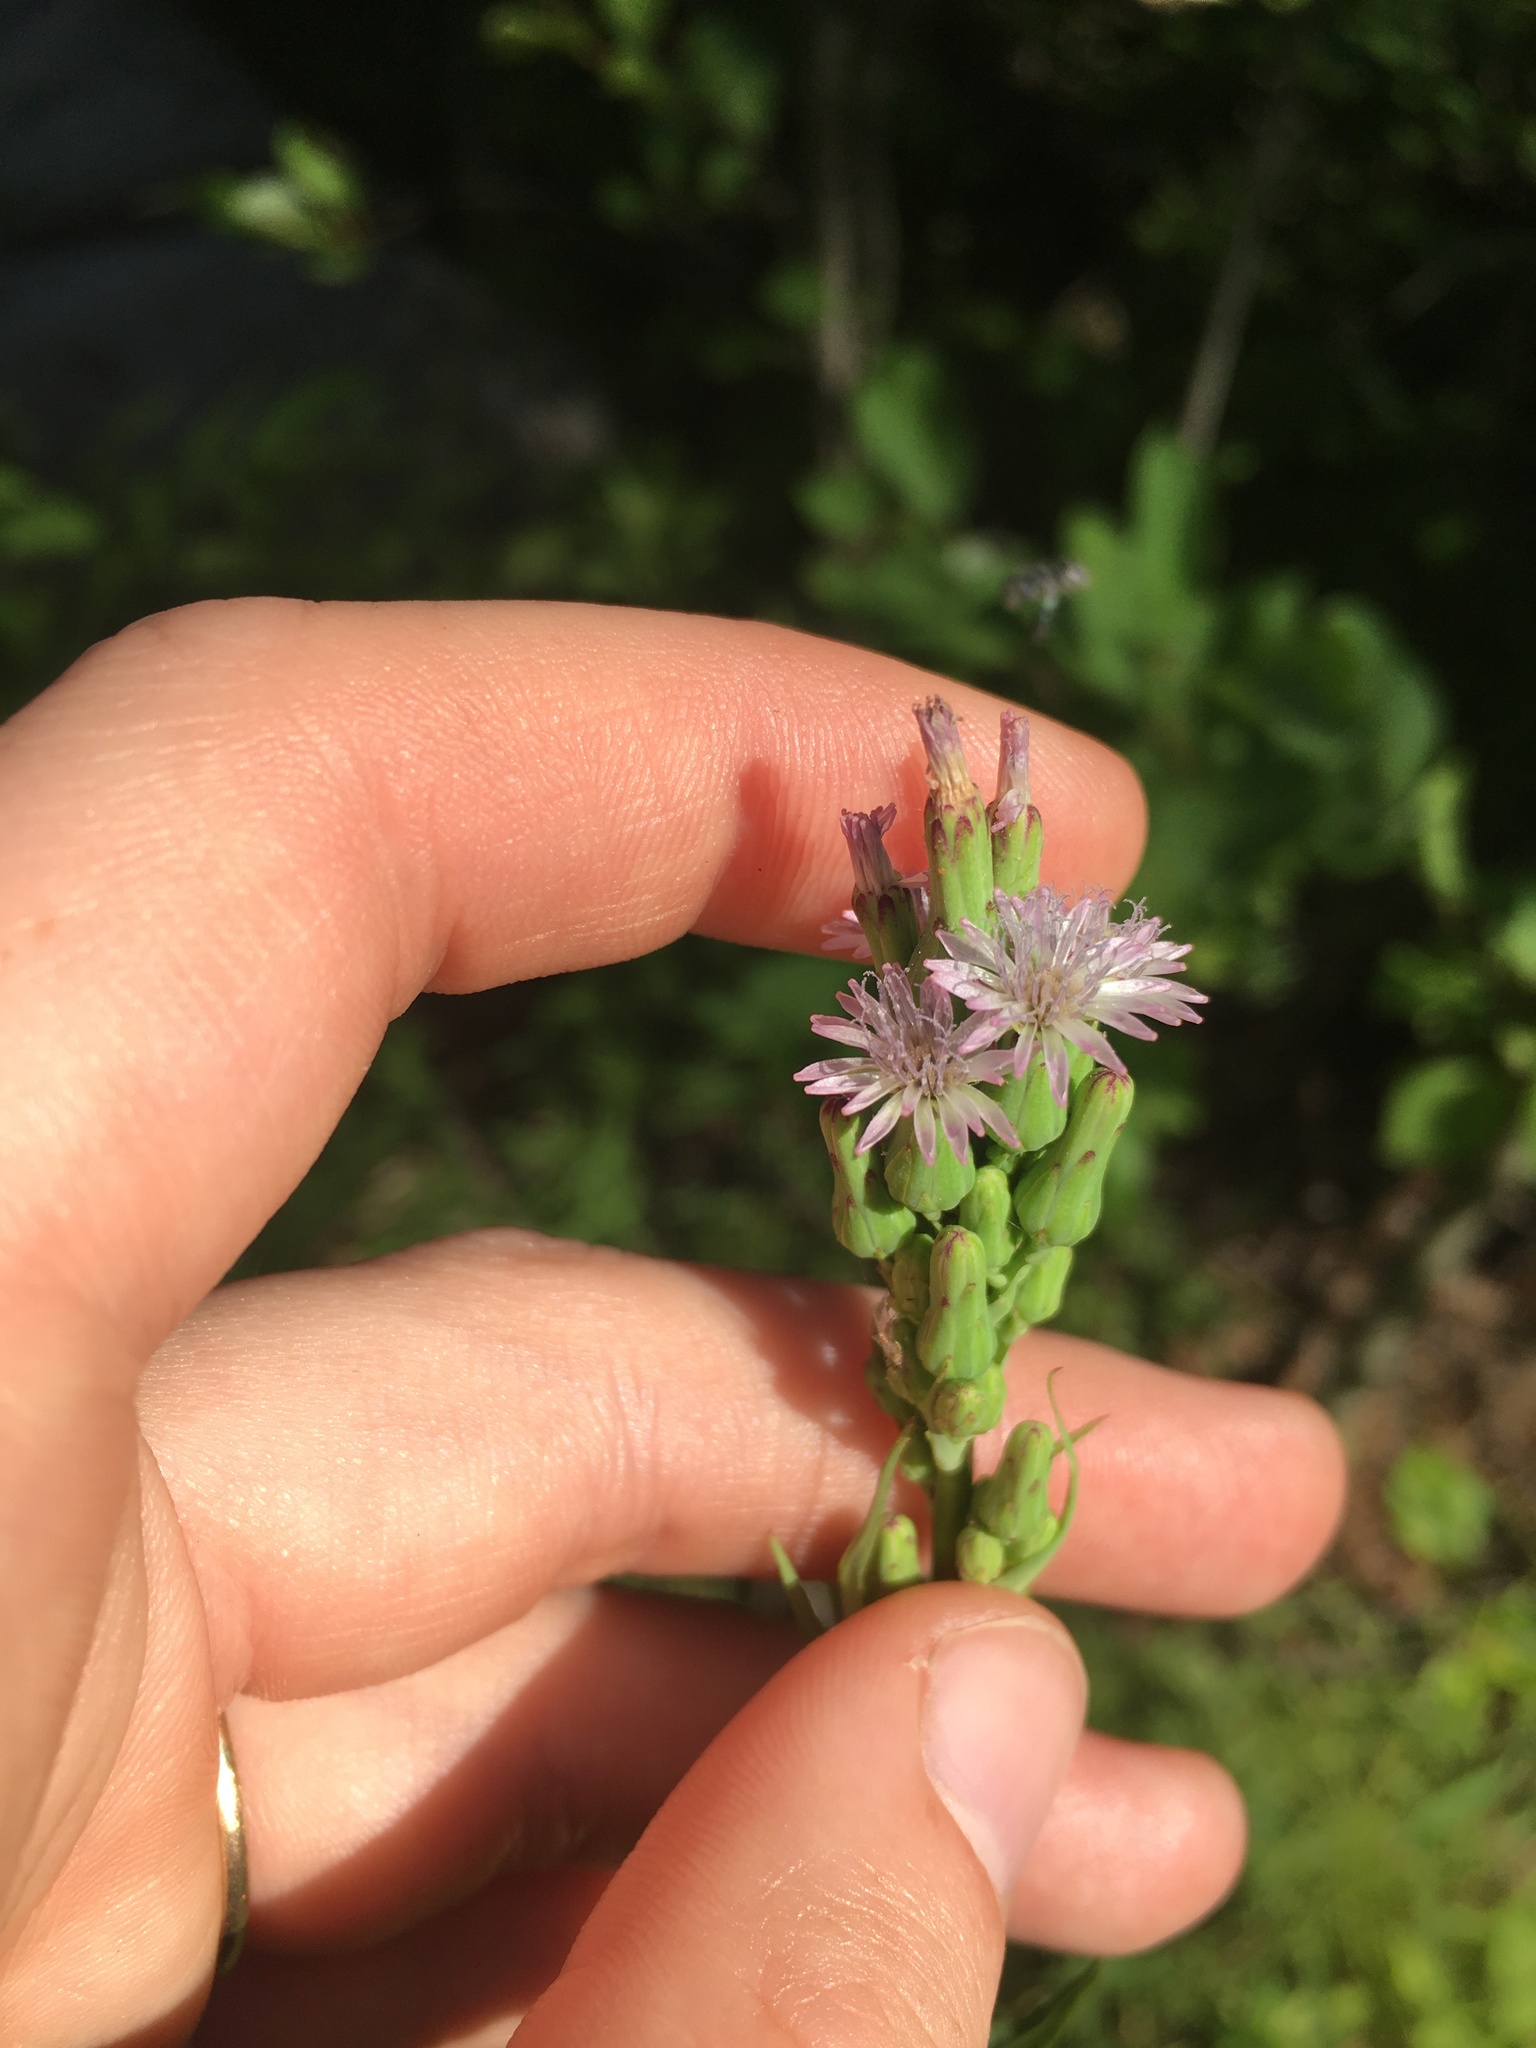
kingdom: Plantae
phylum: Tracheophyta
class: Magnoliopsida
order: Asterales
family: Asteraceae
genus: Lactuca
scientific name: Lactuca biennis
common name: Blue wood lettuce
